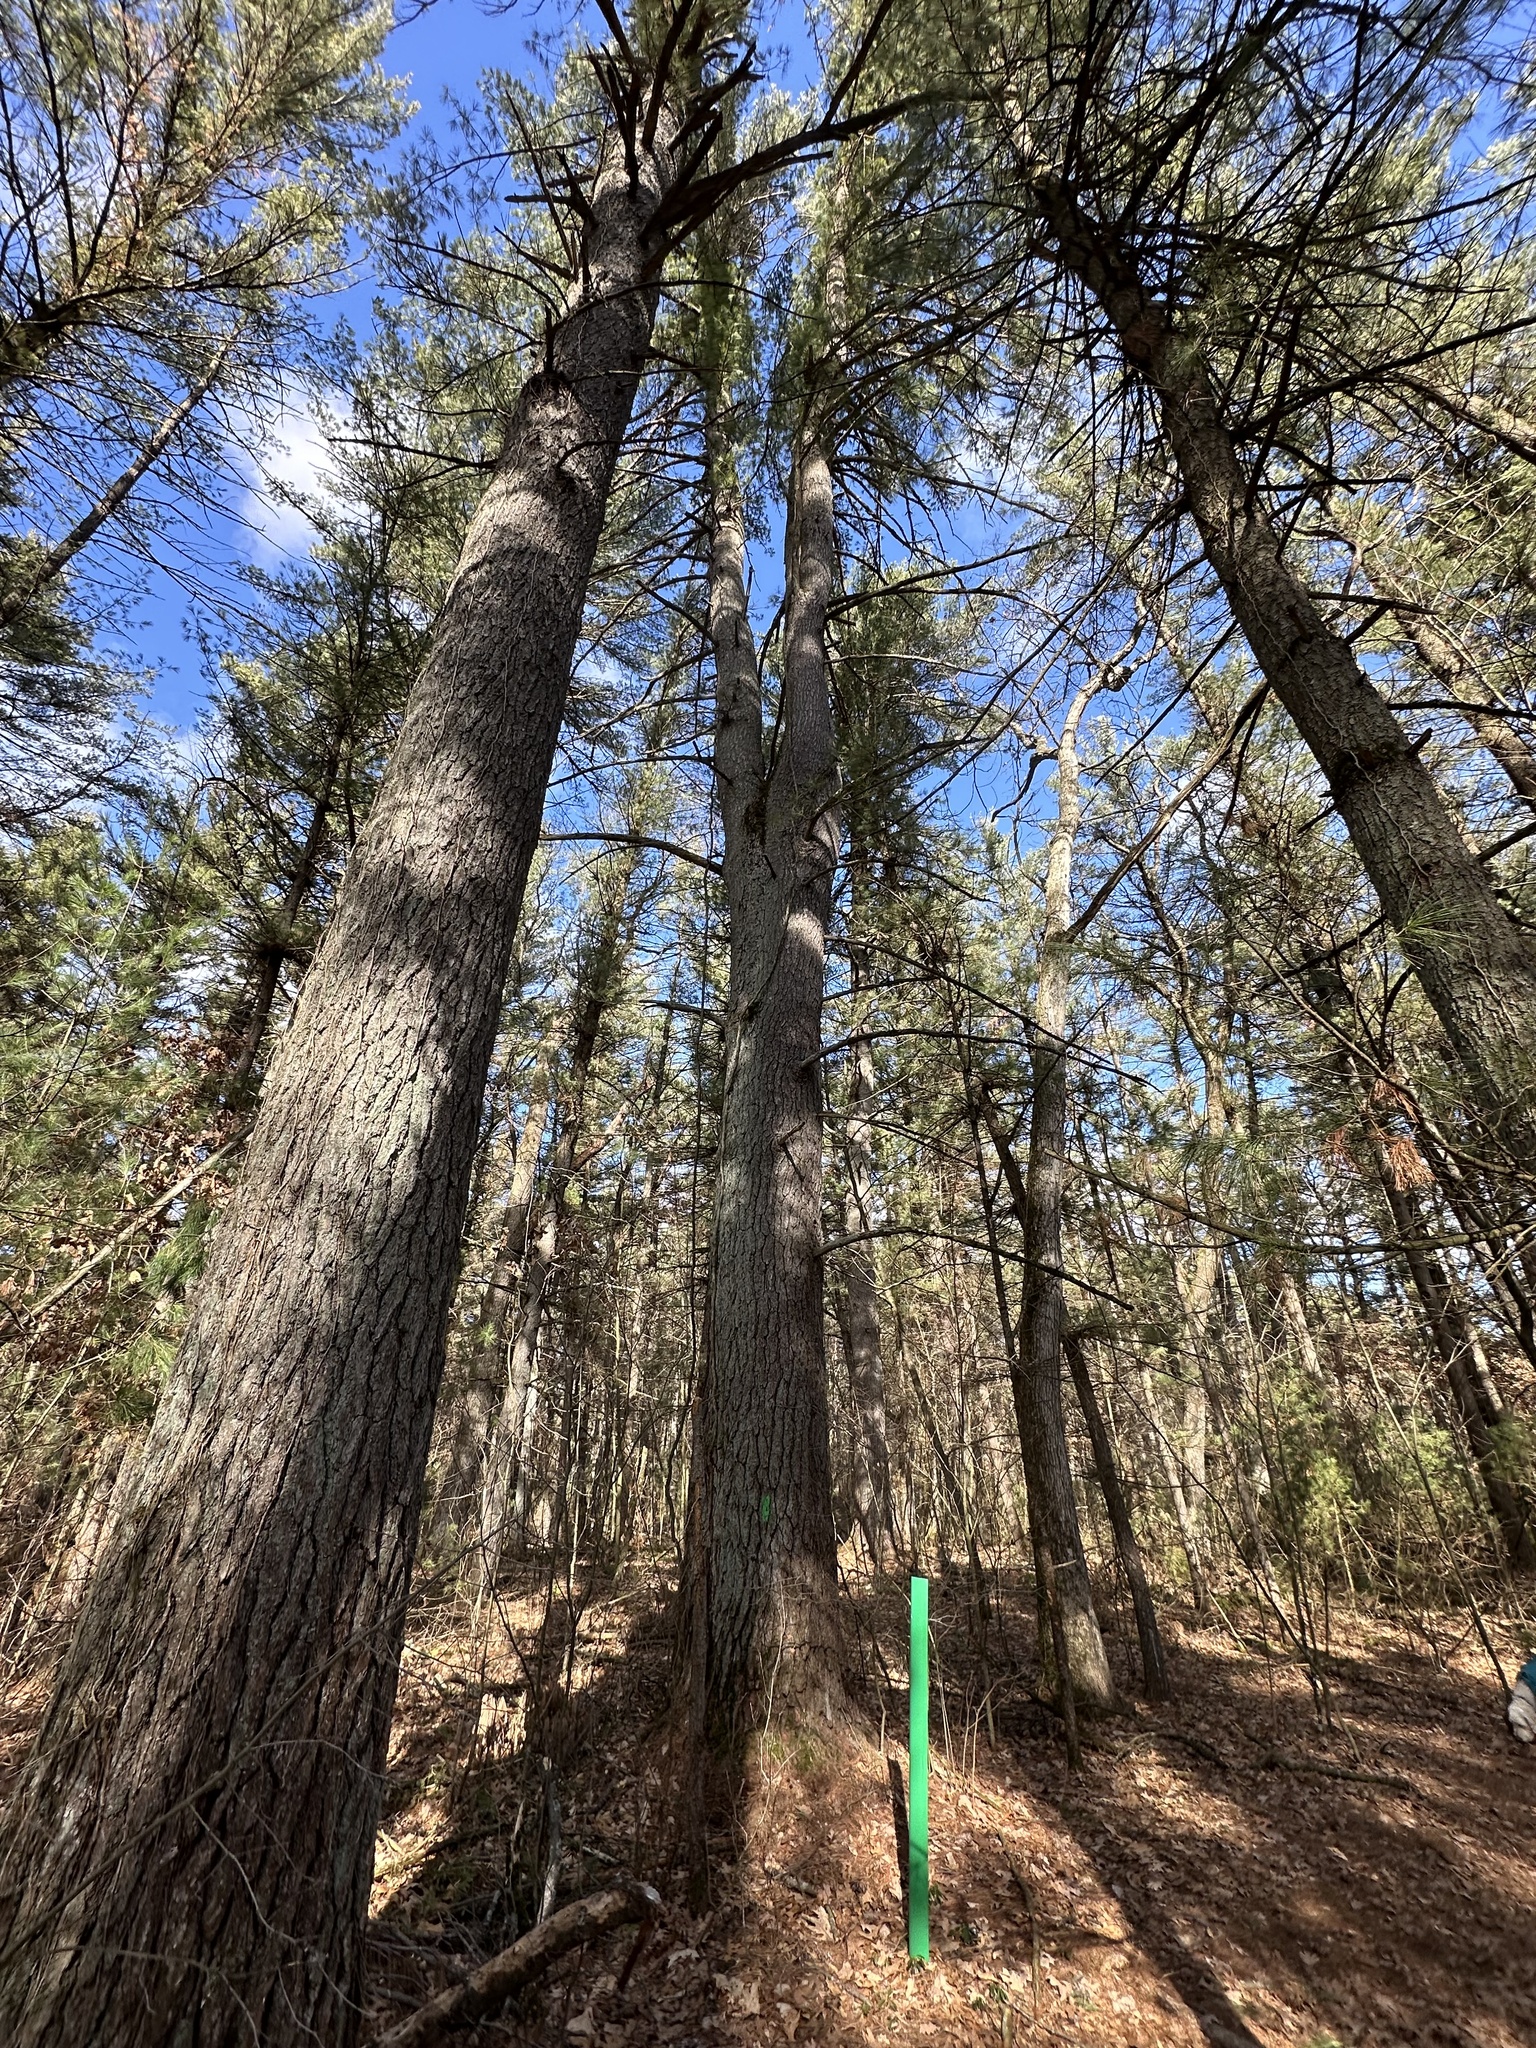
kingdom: Plantae
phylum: Tracheophyta
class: Pinopsida
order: Pinales
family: Pinaceae
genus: Pinus
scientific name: Pinus strobus
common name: Weymouth pine
